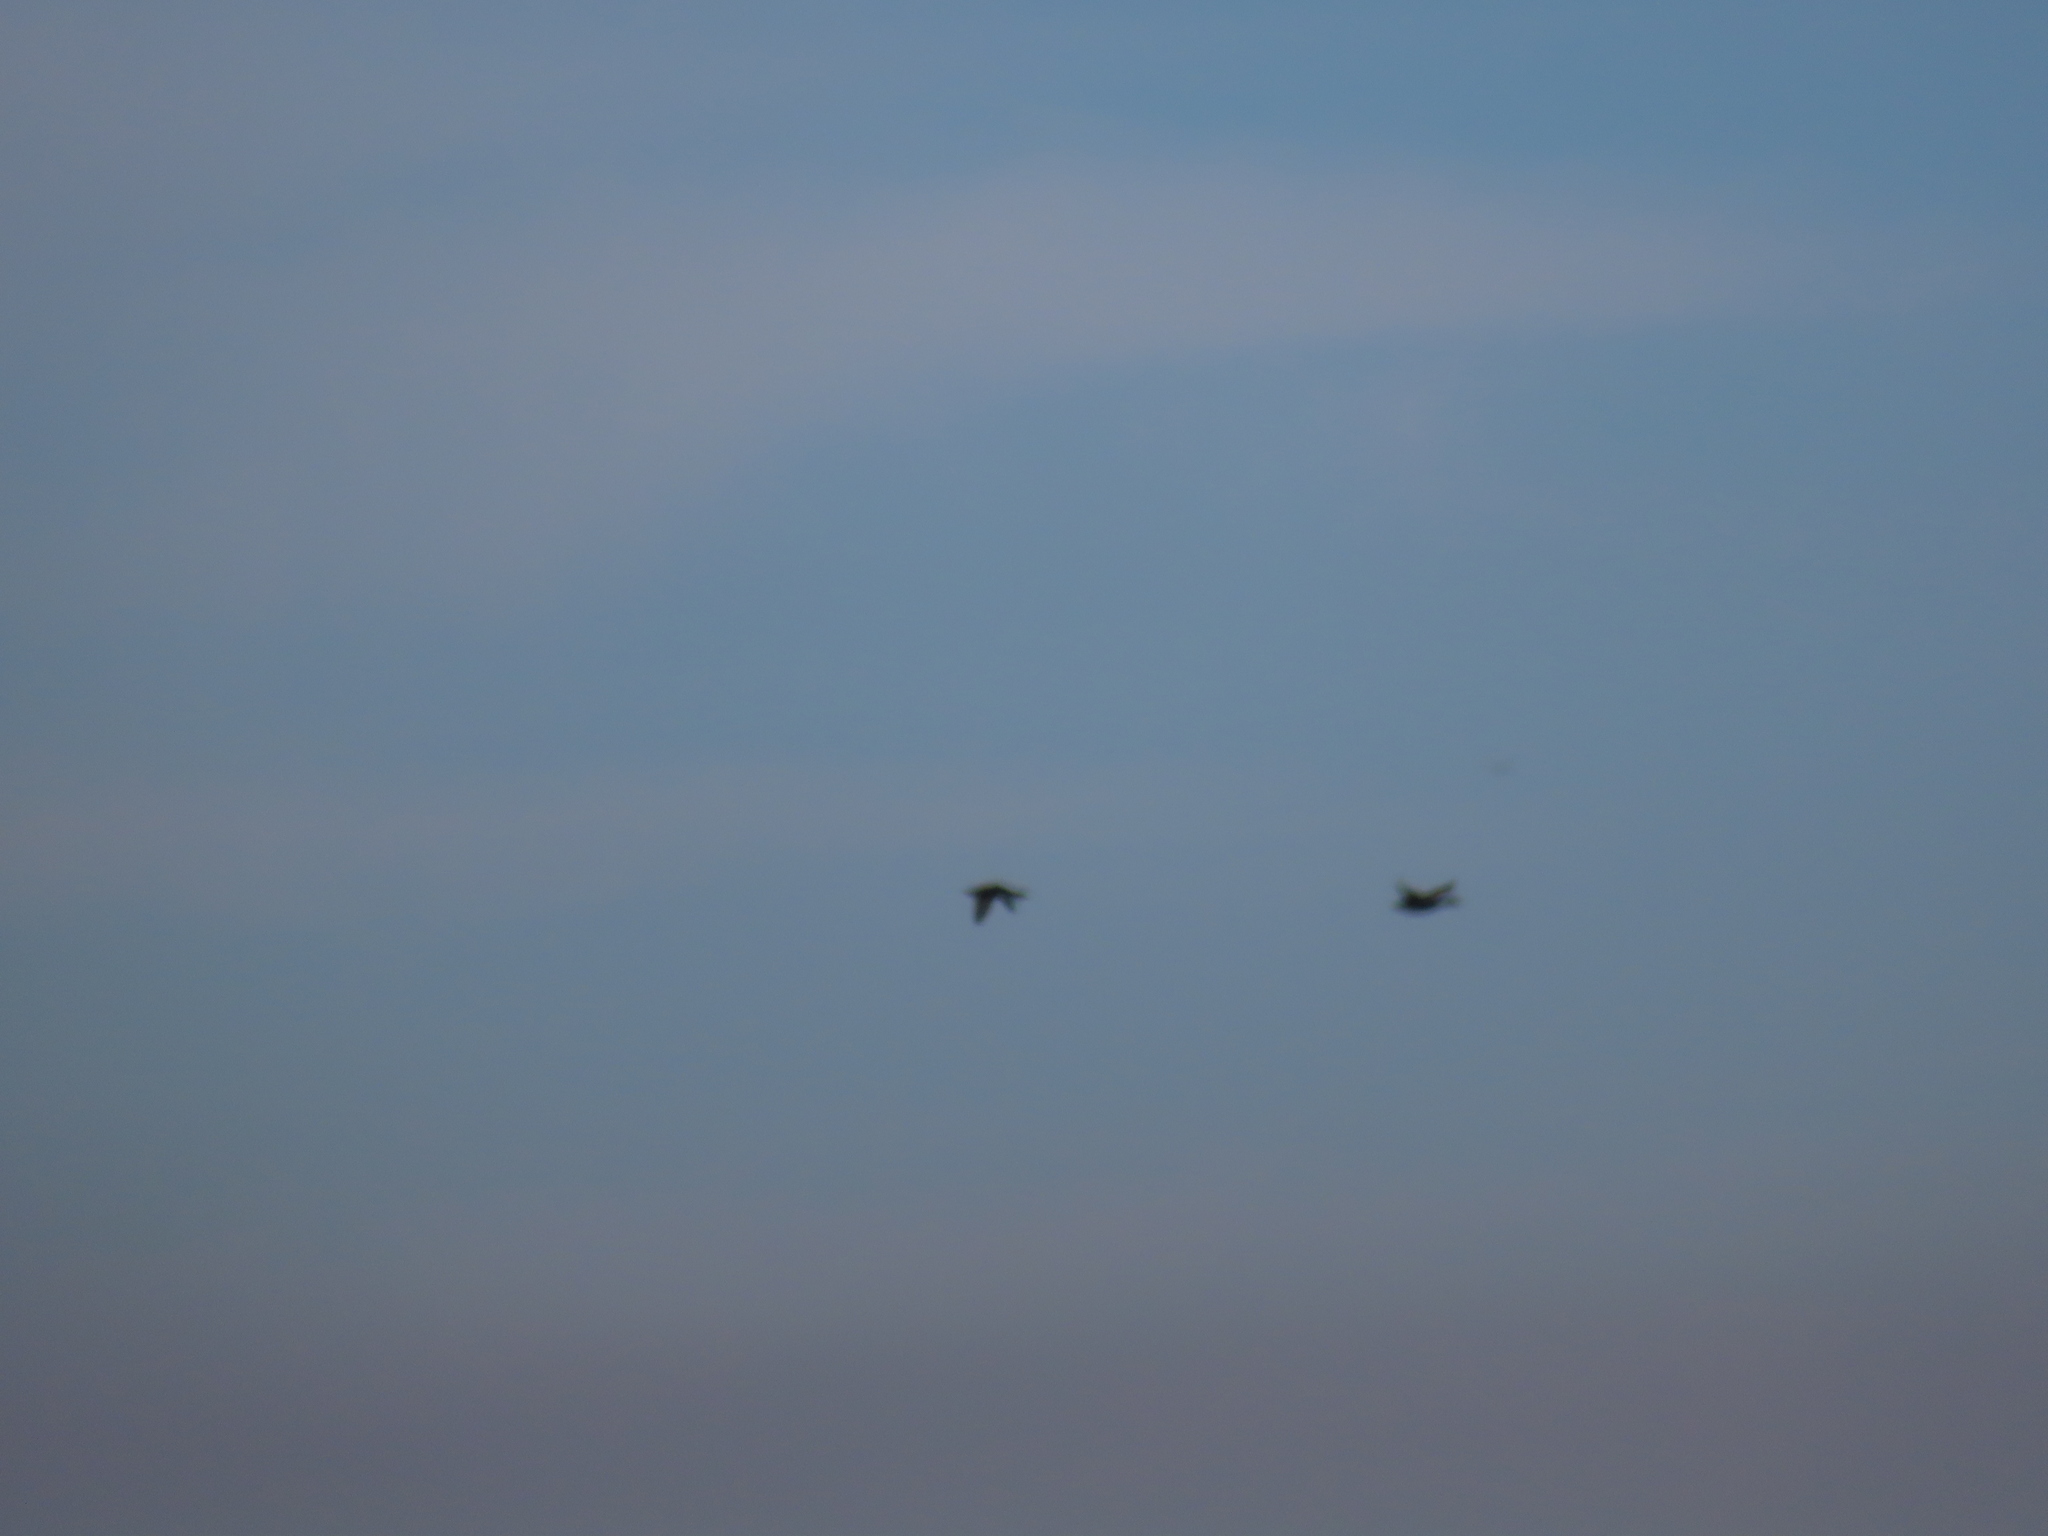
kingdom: Animalia
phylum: Chordata
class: Aves
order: Anseriformes
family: Anatidae
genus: Anas
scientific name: Anas rubripes
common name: American black duck
